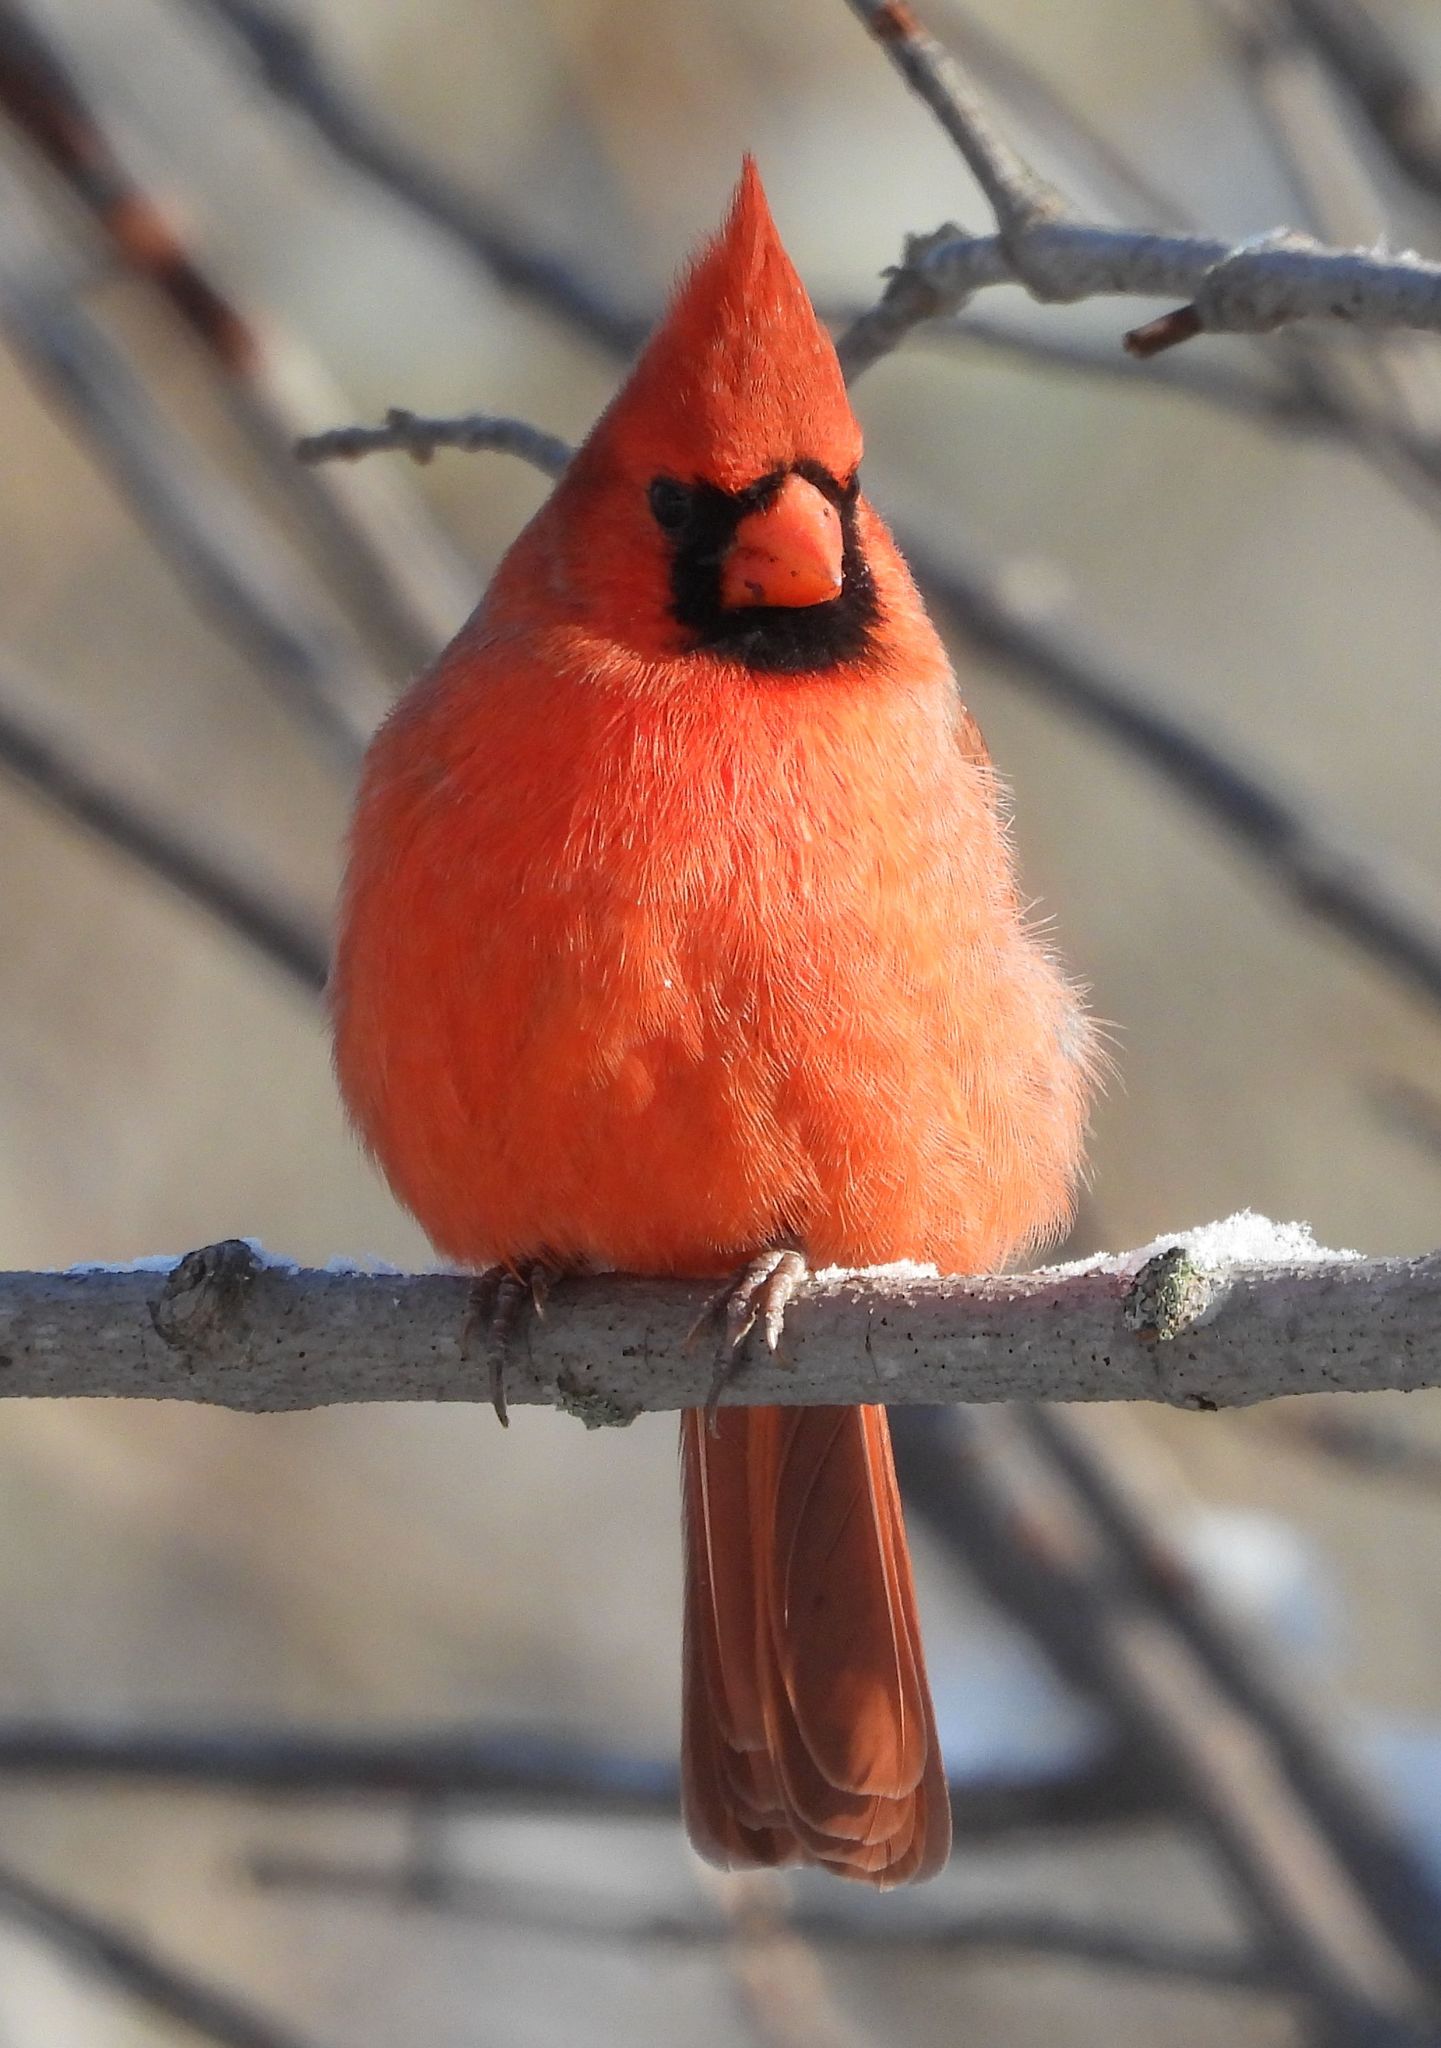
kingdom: Animalia
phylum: Chordata
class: Aves
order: Passeriformes
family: Cardinalidae
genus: Cardinalis
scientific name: Cardinalis cardinalis
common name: Northern cardinal
